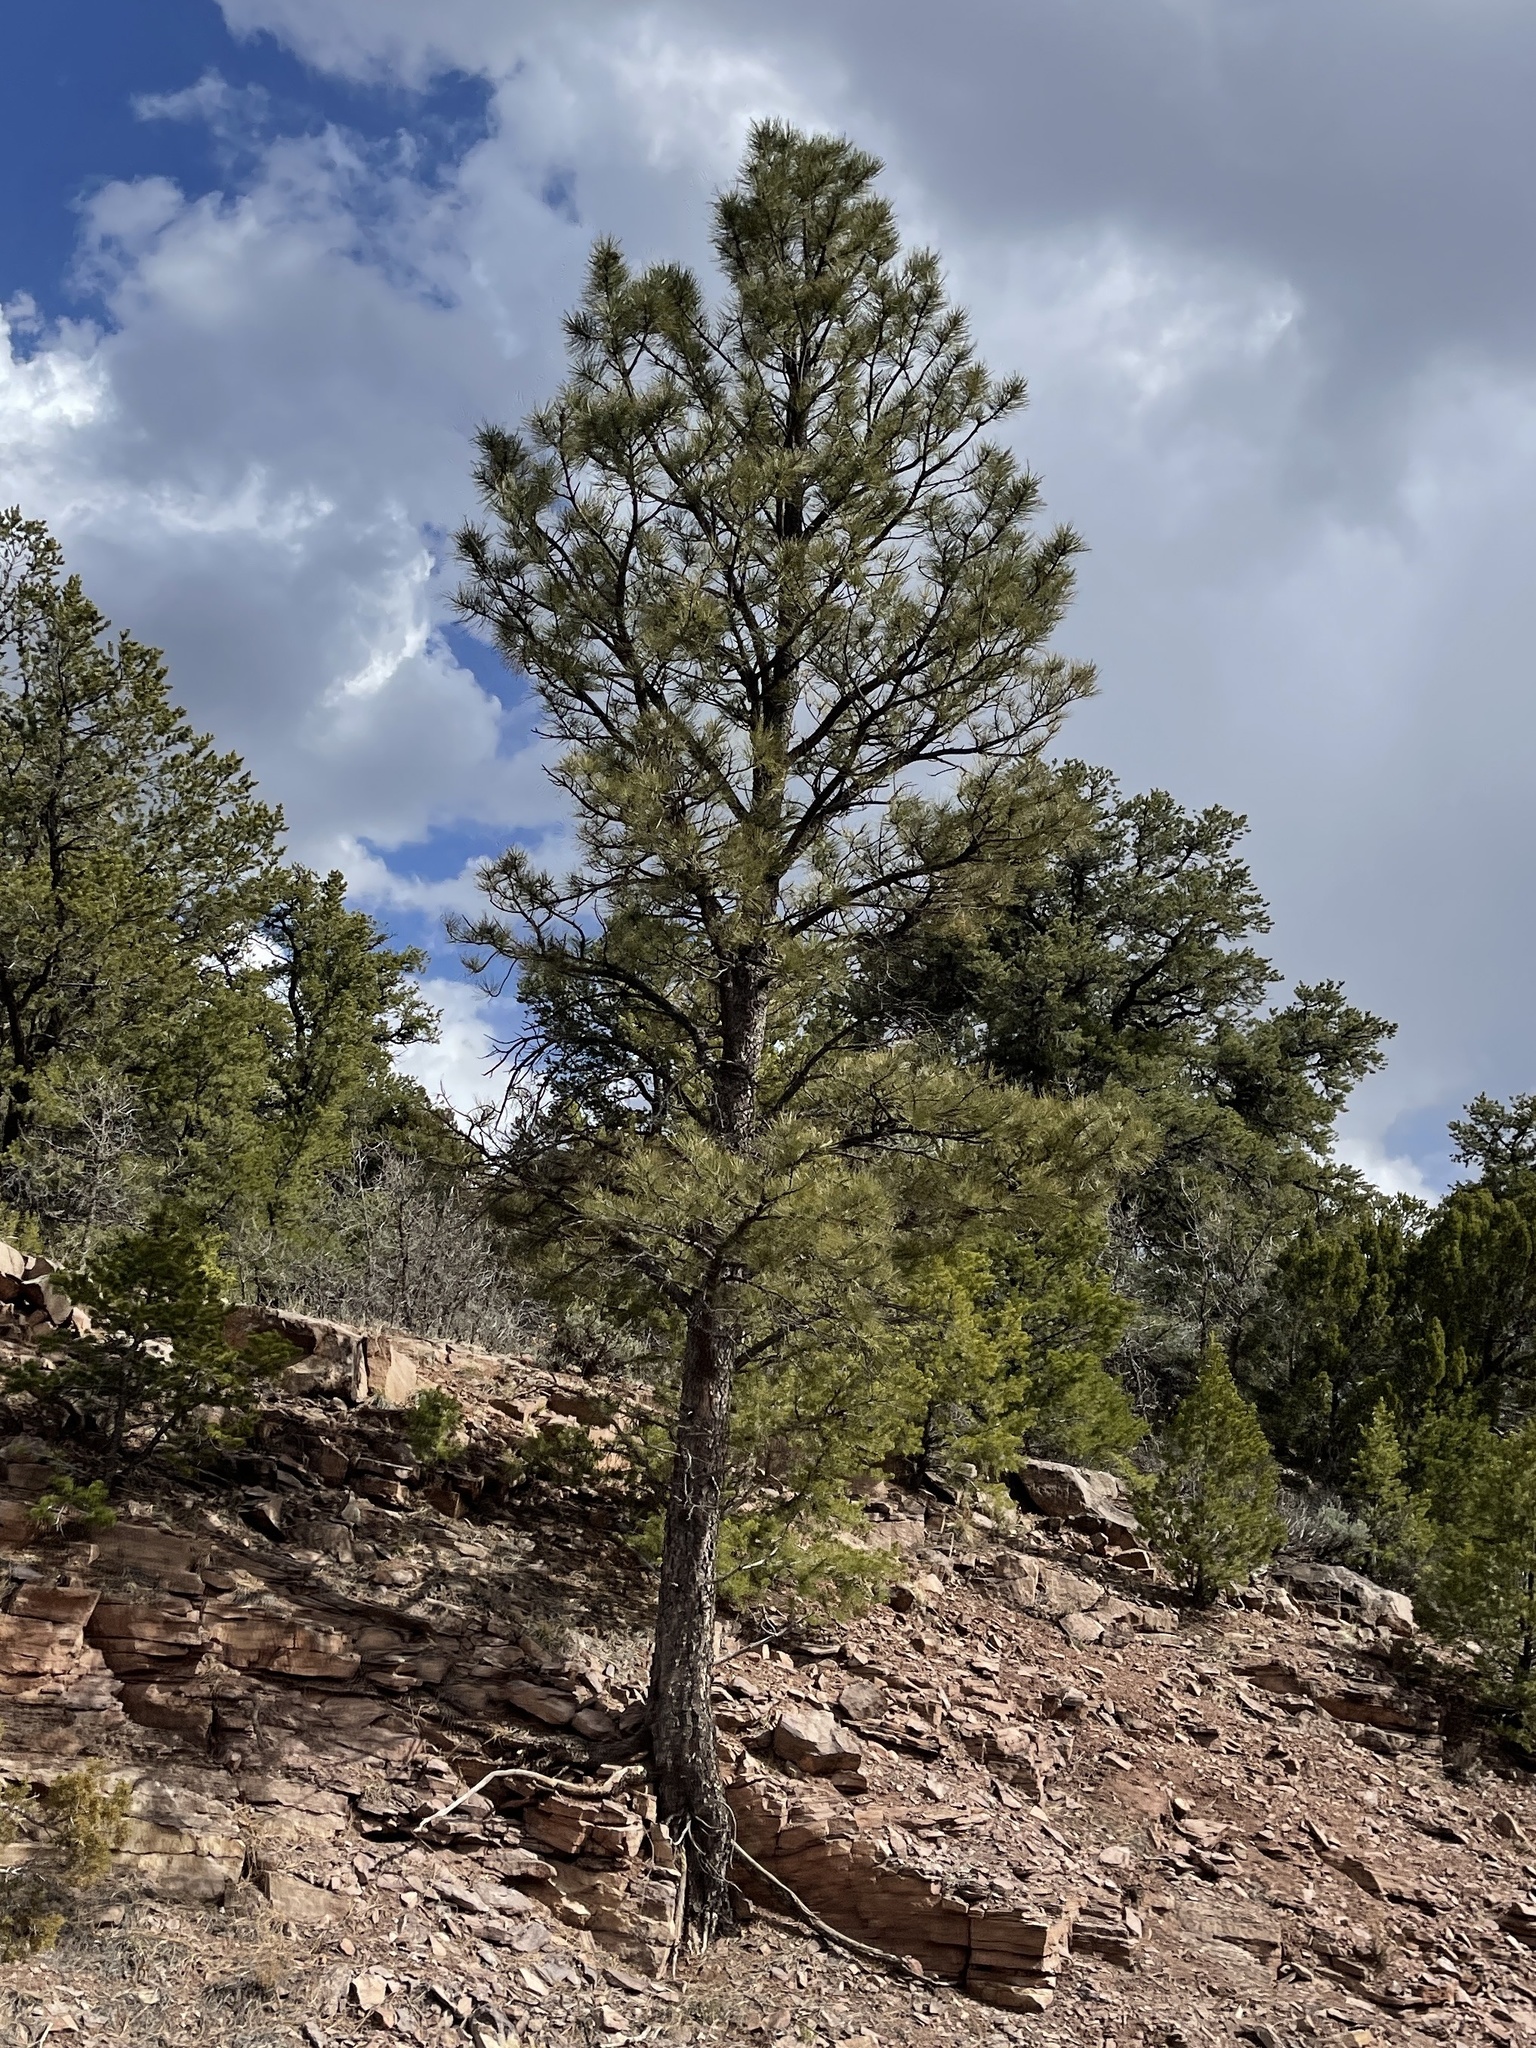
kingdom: Plantae
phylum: Tracheophyta
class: Pinopsida
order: Pinales
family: Pinaceae
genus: Pinus
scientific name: Pinus ponderosa
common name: Western yellow-pine
